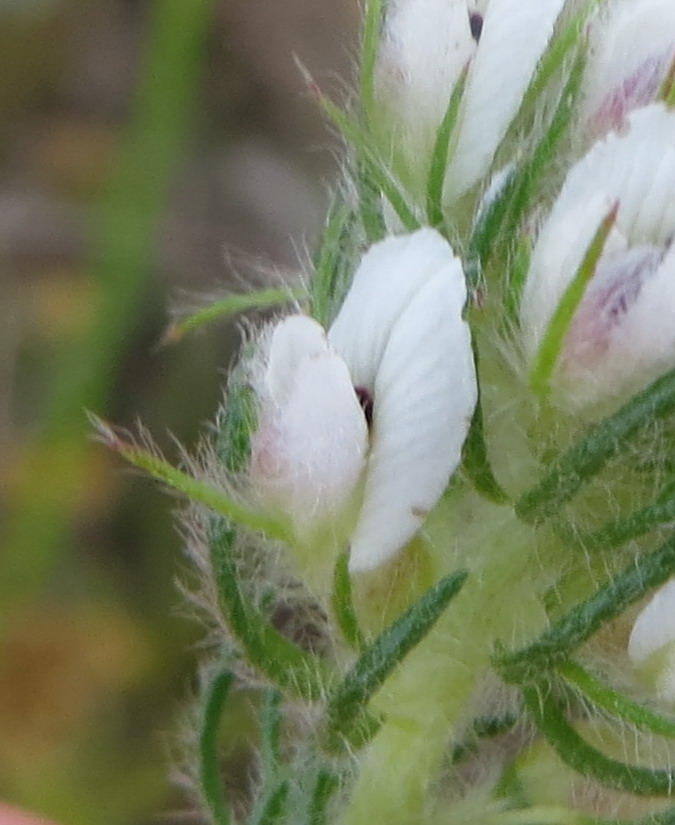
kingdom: Plantae
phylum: Tracheophyta
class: Magnoliopsida
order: Fabales
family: Fabaceae
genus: Aspalathus
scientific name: Aspalathus cerrhantha
